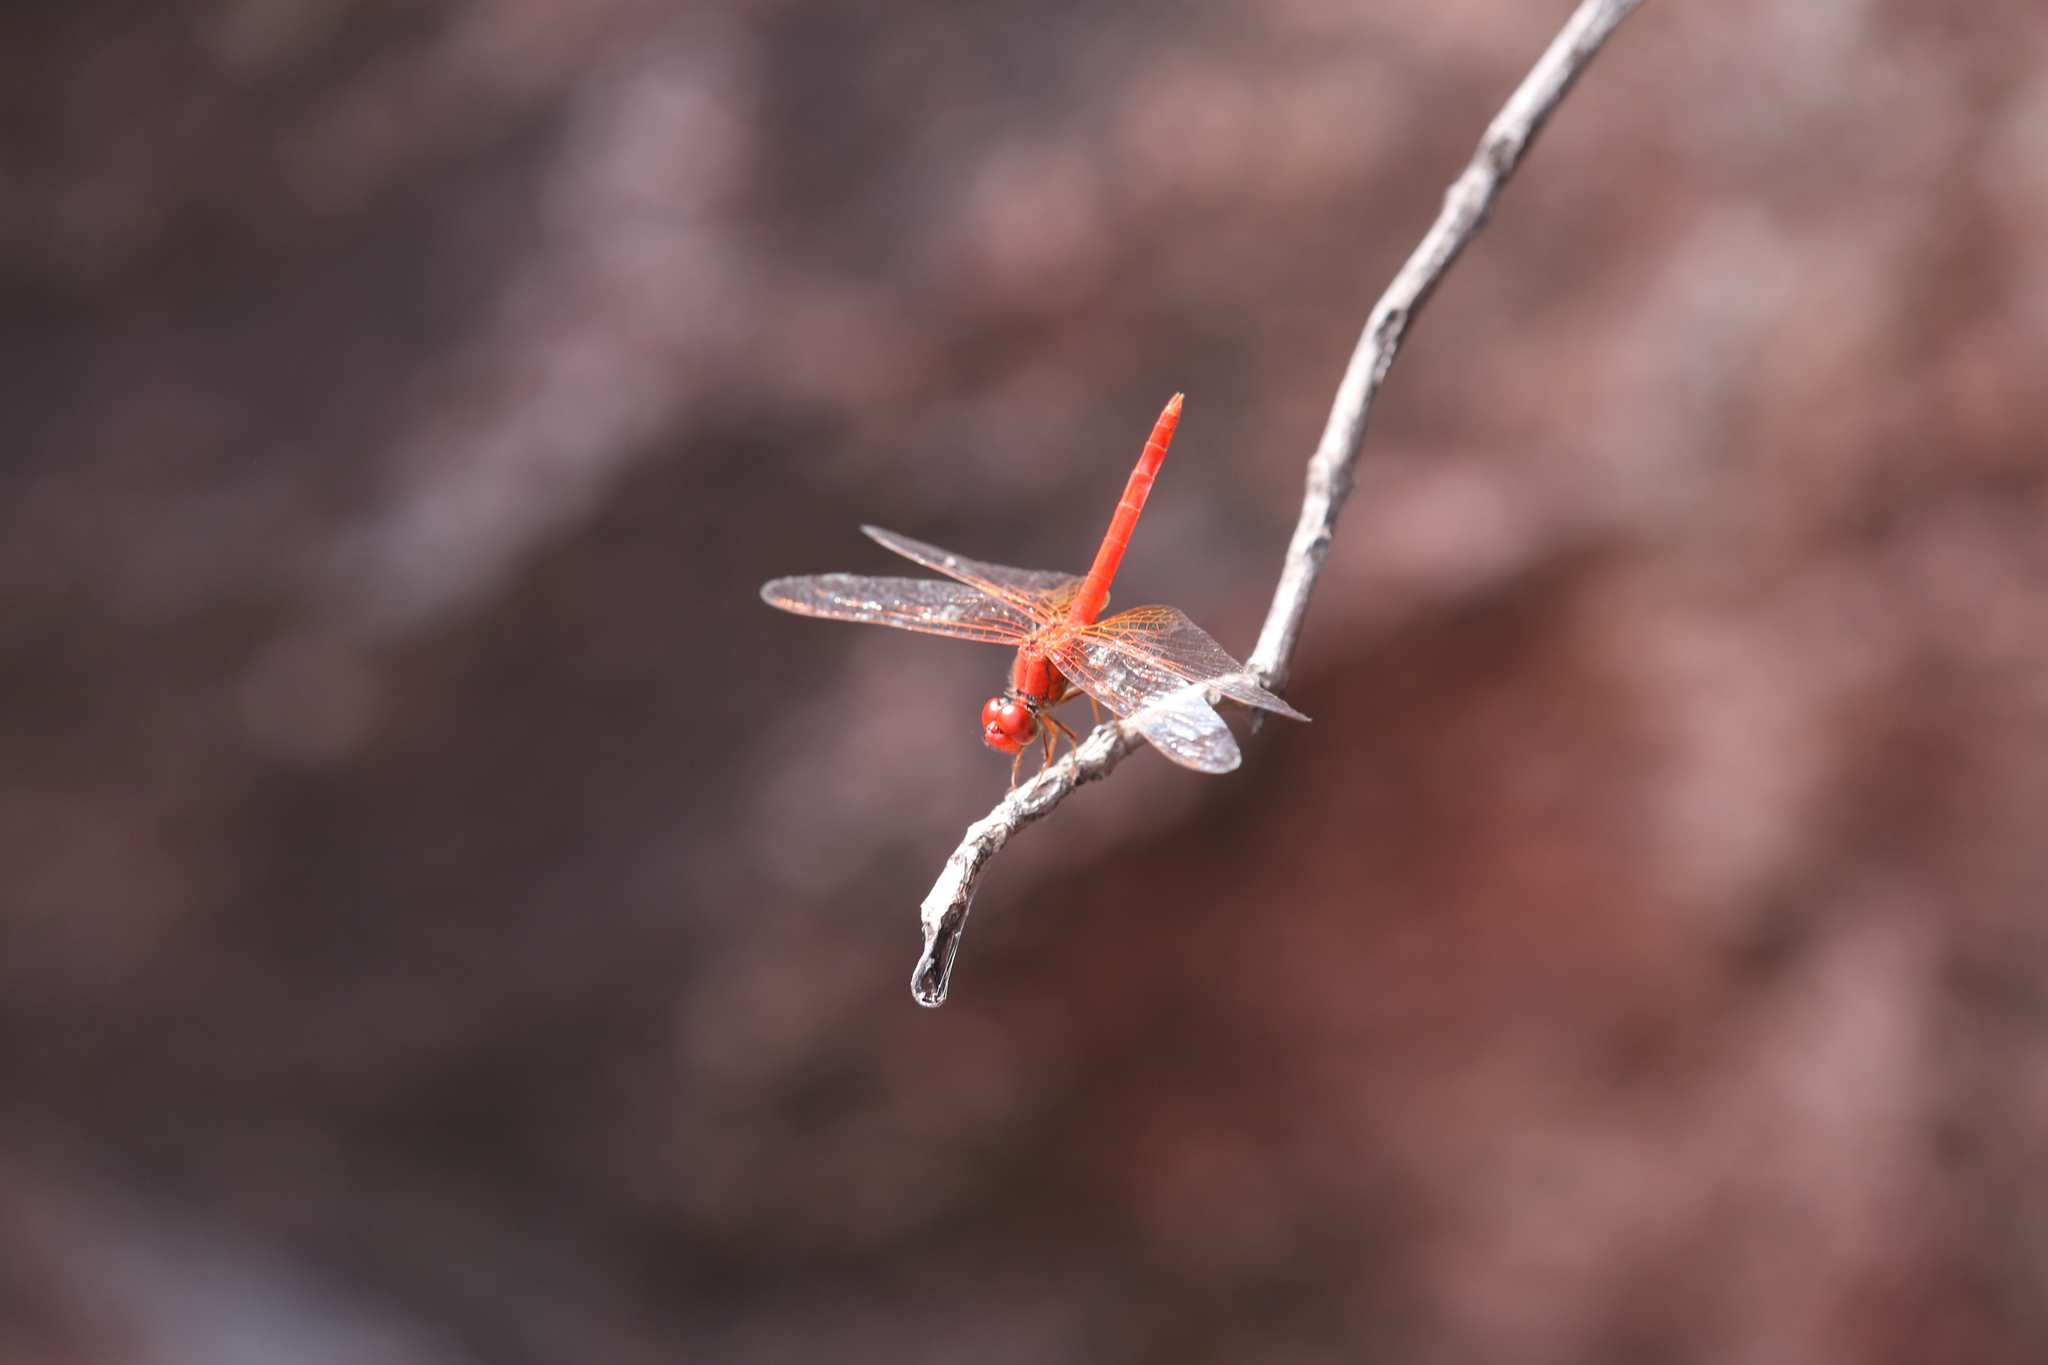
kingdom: Animalia
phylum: Arthropoda
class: Insecta
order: Odonata
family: Libellulidae
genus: Diplacodes
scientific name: Diplacodes haematodes
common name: Scarlet percher
